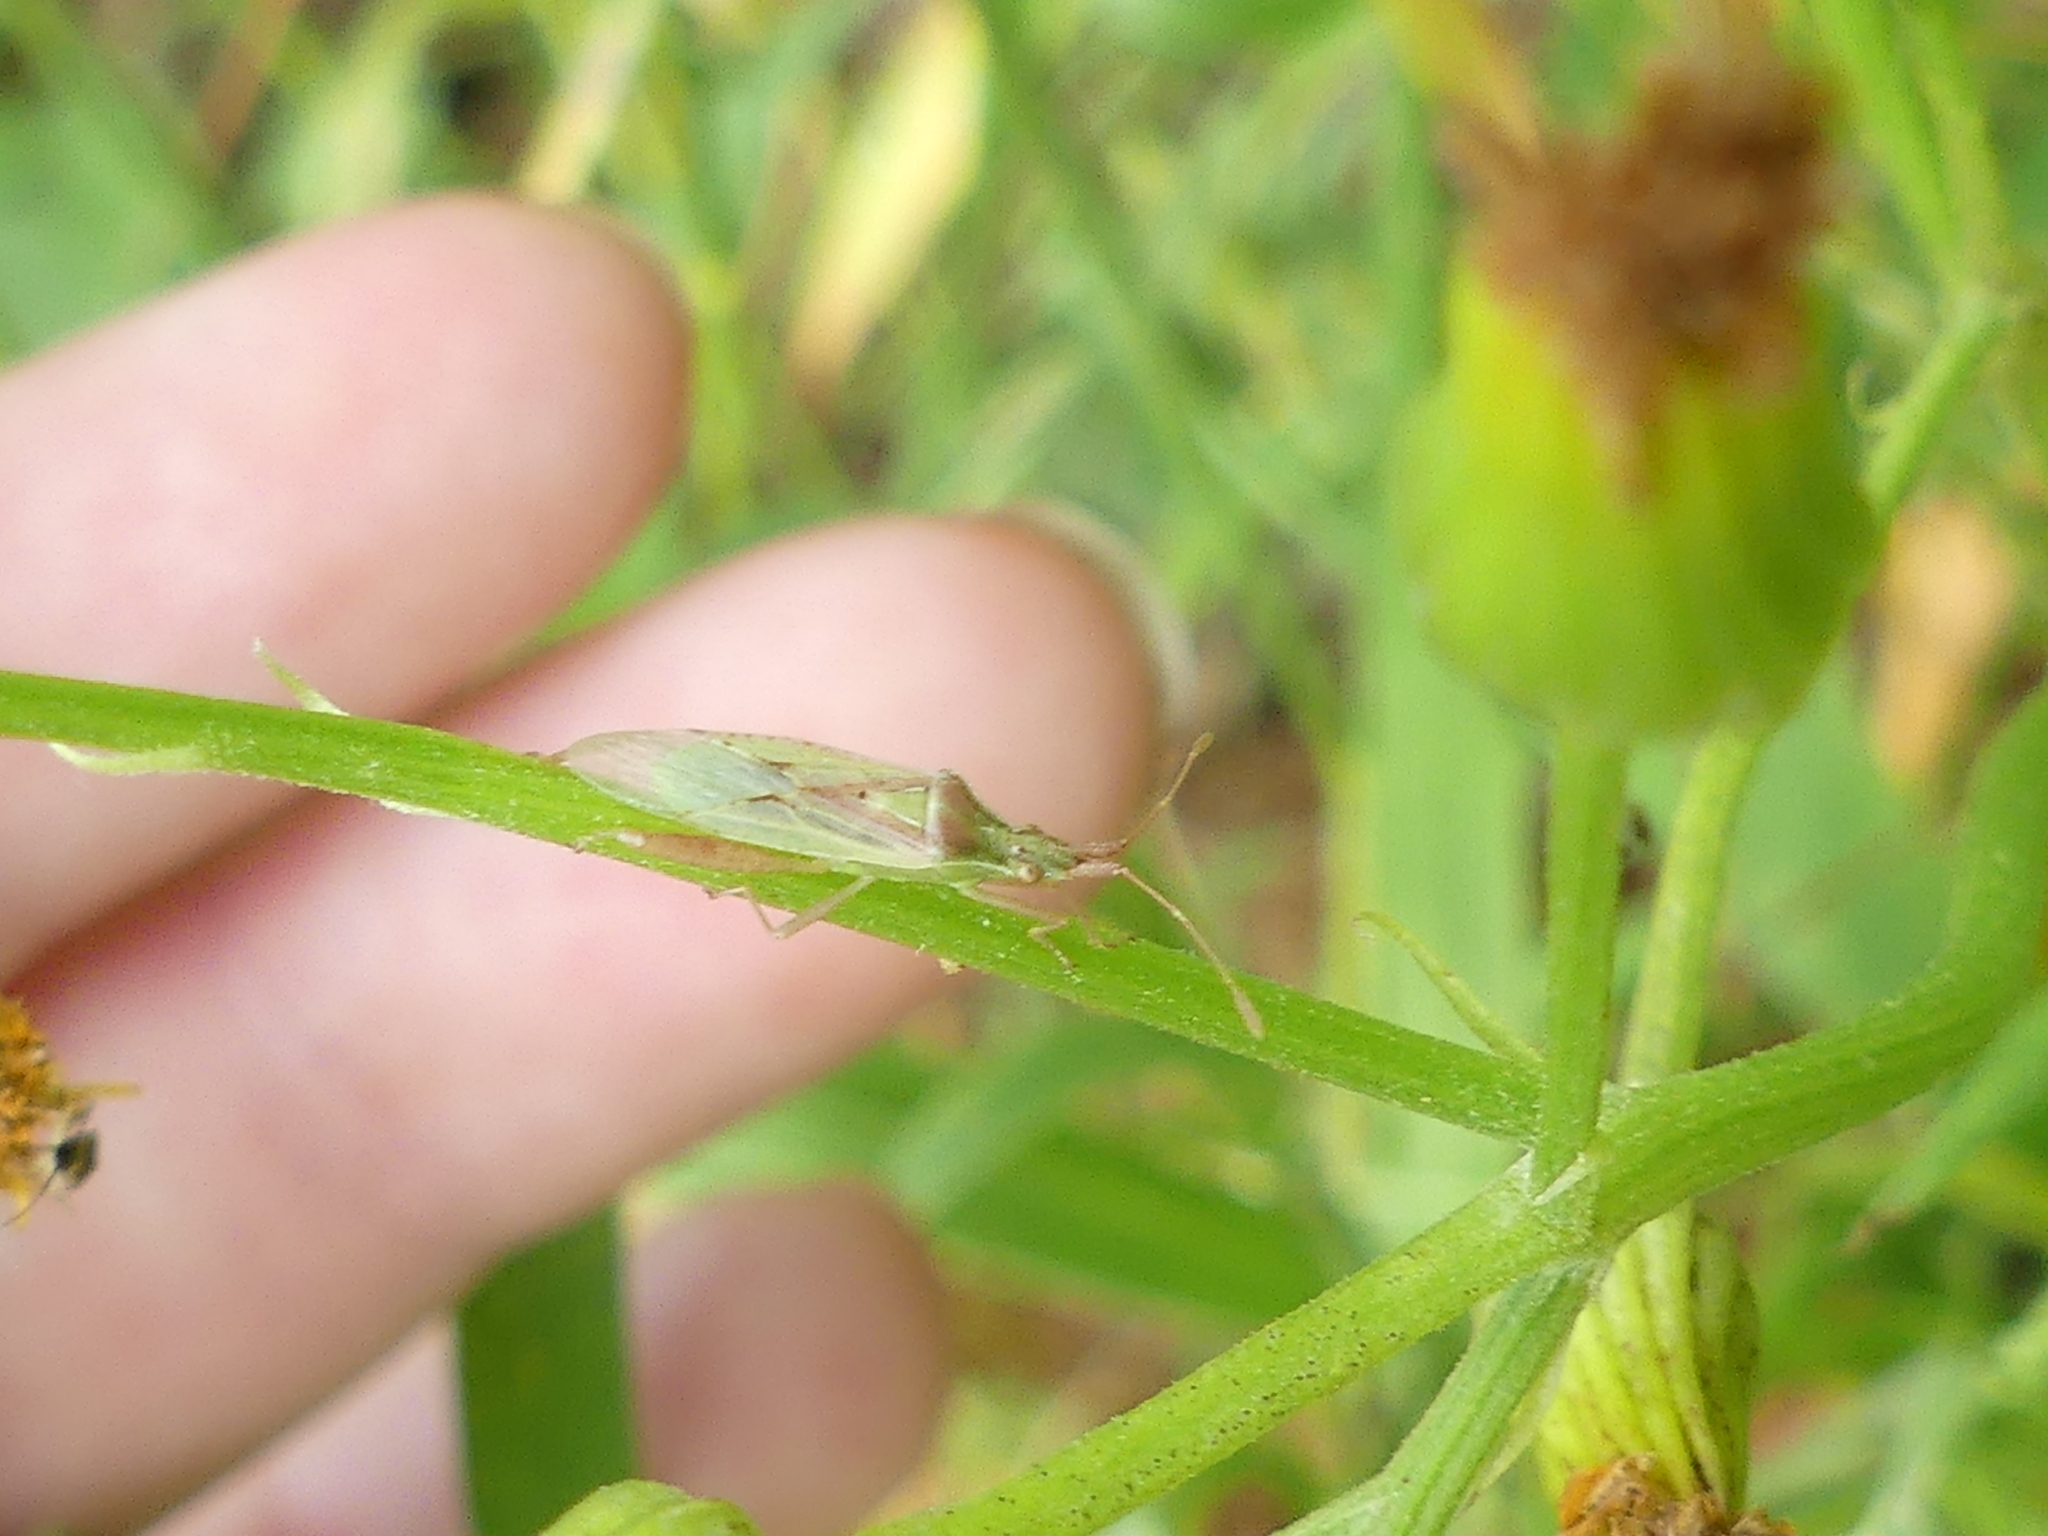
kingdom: Animalia
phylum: Arthropoda
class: Insecta
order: Hemiptera
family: Rhopalidae
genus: Harmostes
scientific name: Harmostes reflexulus
